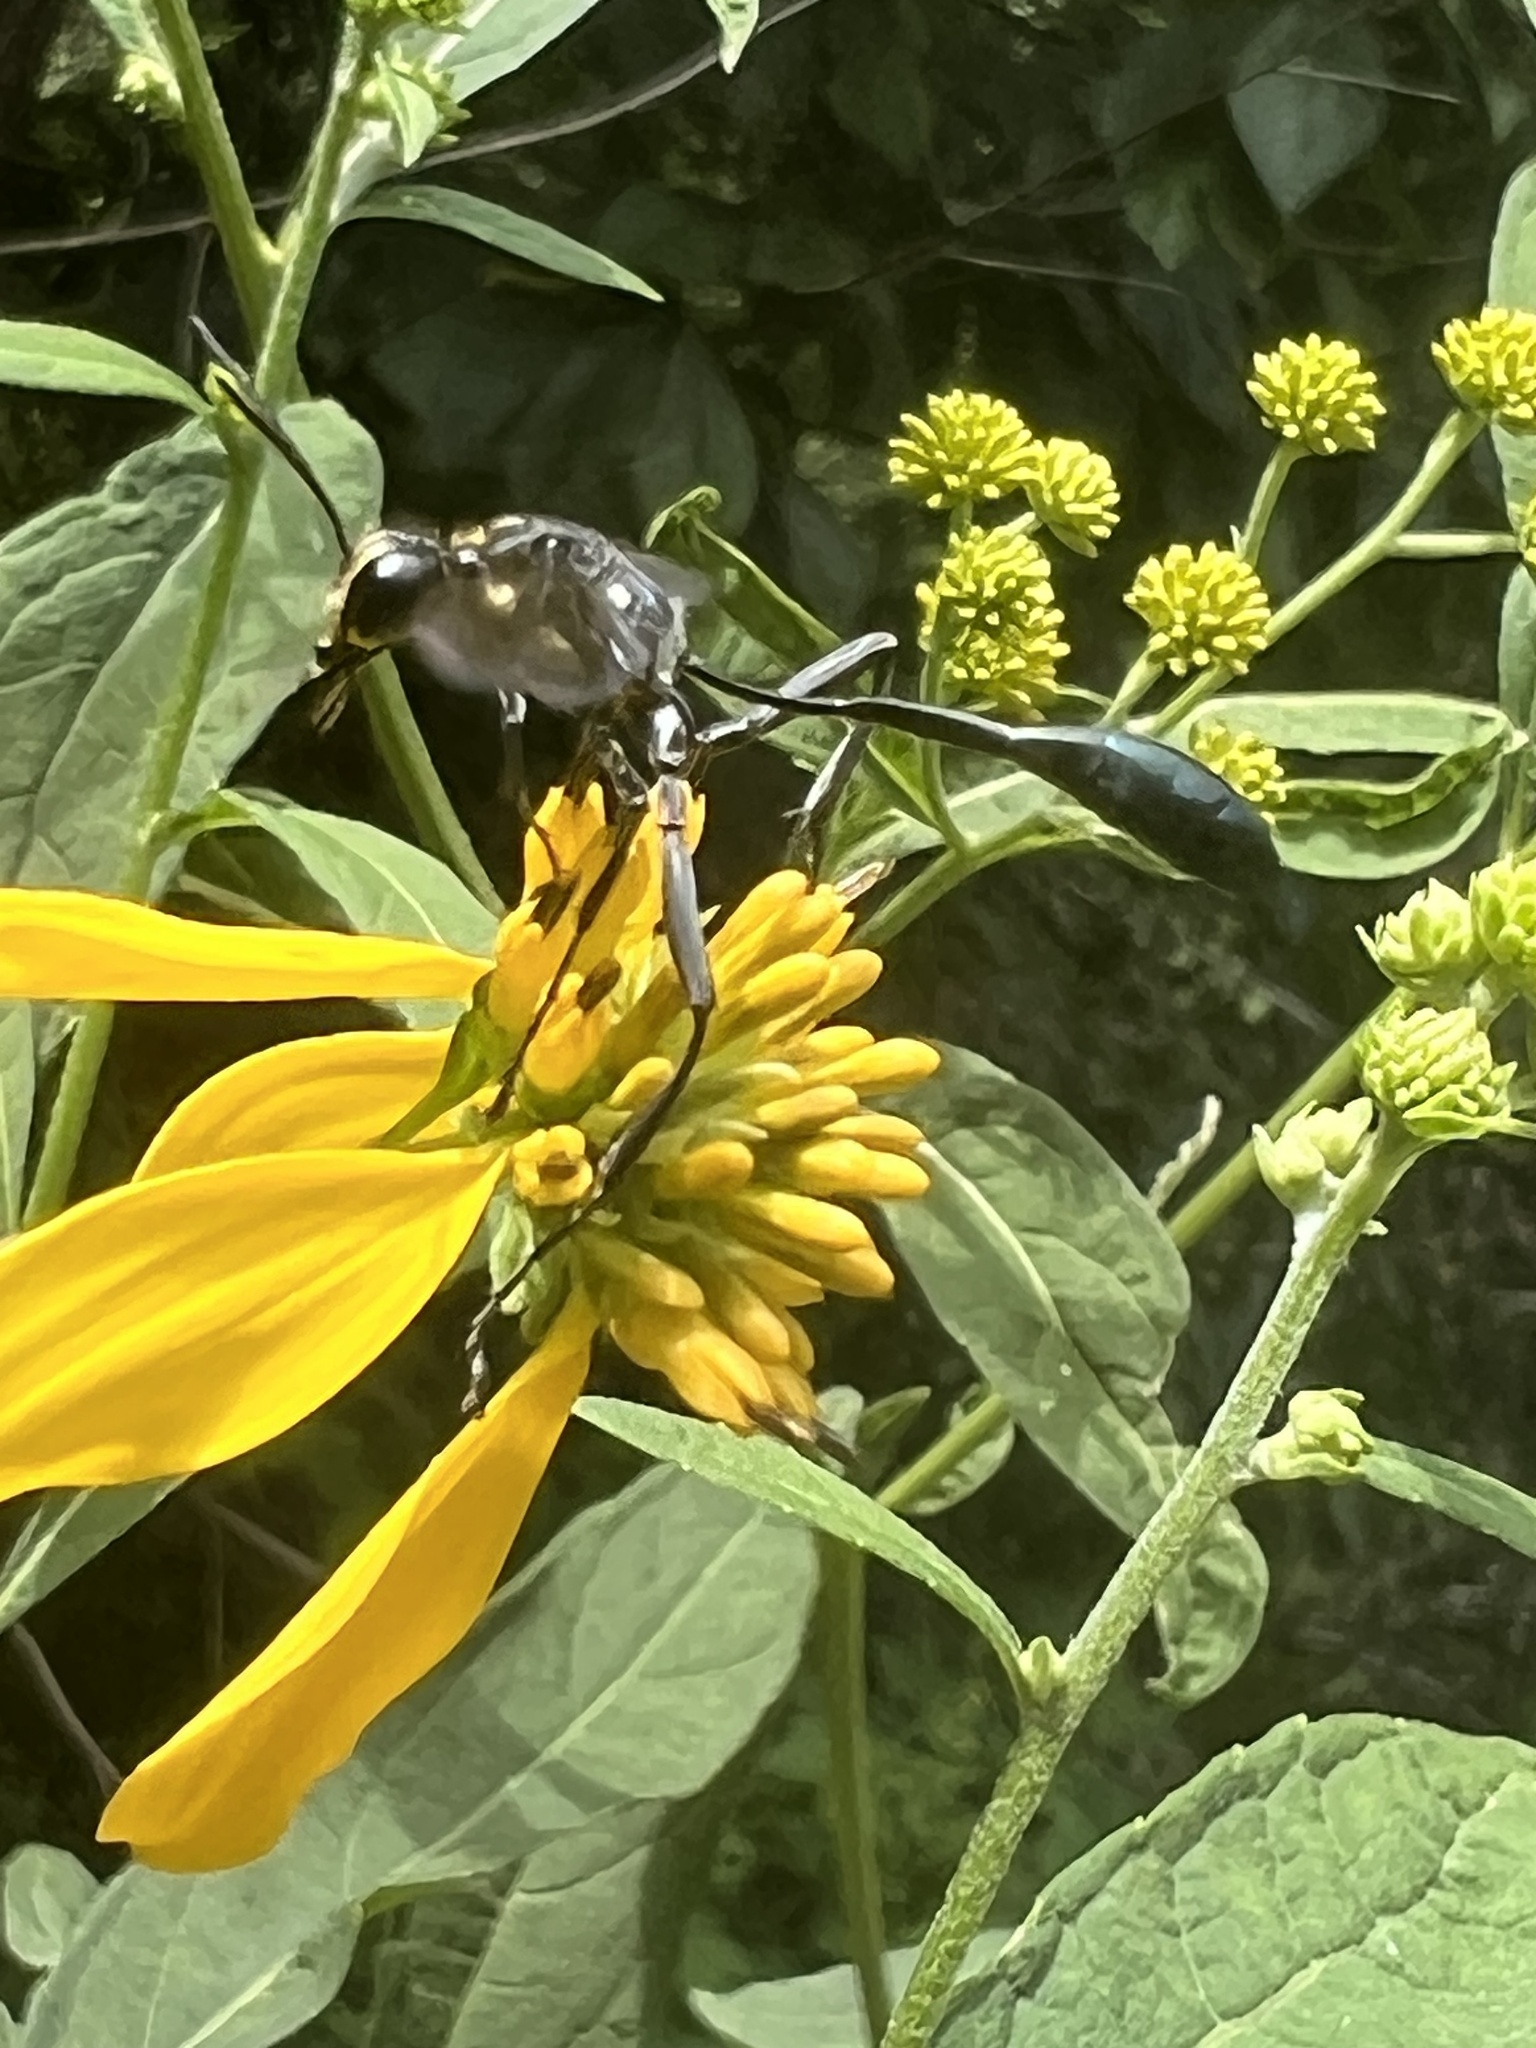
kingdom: Animalia
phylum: Arthropoda
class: Insecta
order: Hymenoptera
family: Sphecidae
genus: Eremnophila
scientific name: Eremnophila aureonotata
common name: Gold-marked thread-waisted wasp
